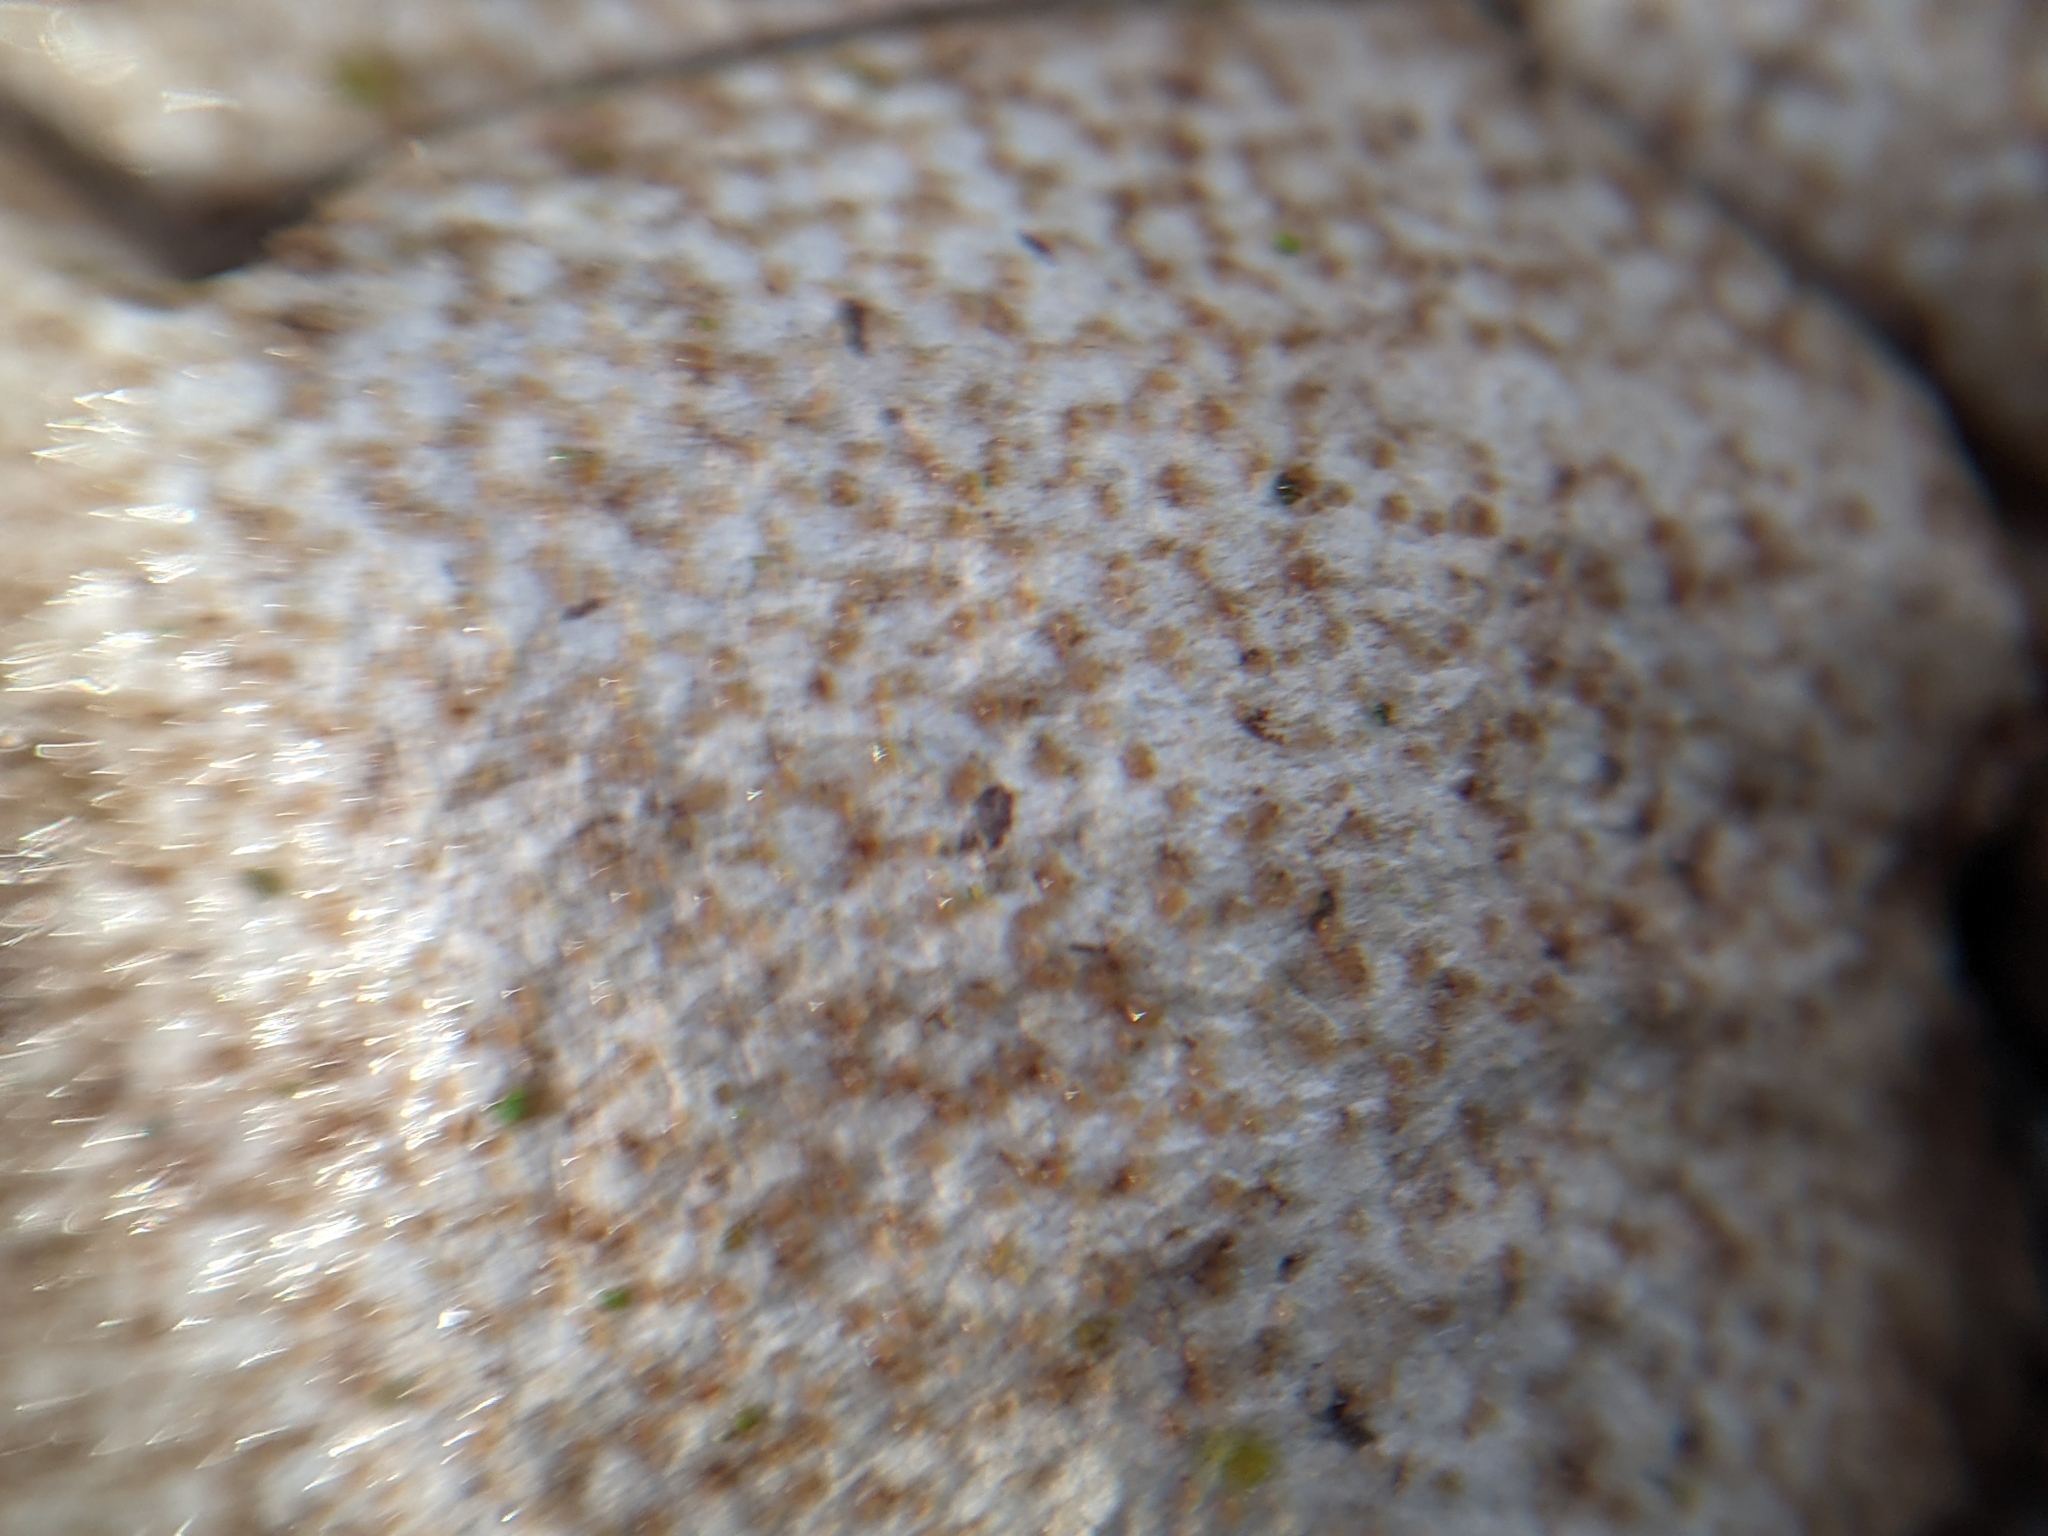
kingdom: Fungi
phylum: Basidiomycota
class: Agaricomycetes
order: Agaricales
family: Lycoperdaceae
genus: Apioperdon
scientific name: Apioperdon pyriforme
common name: Pear-shaped puffball
